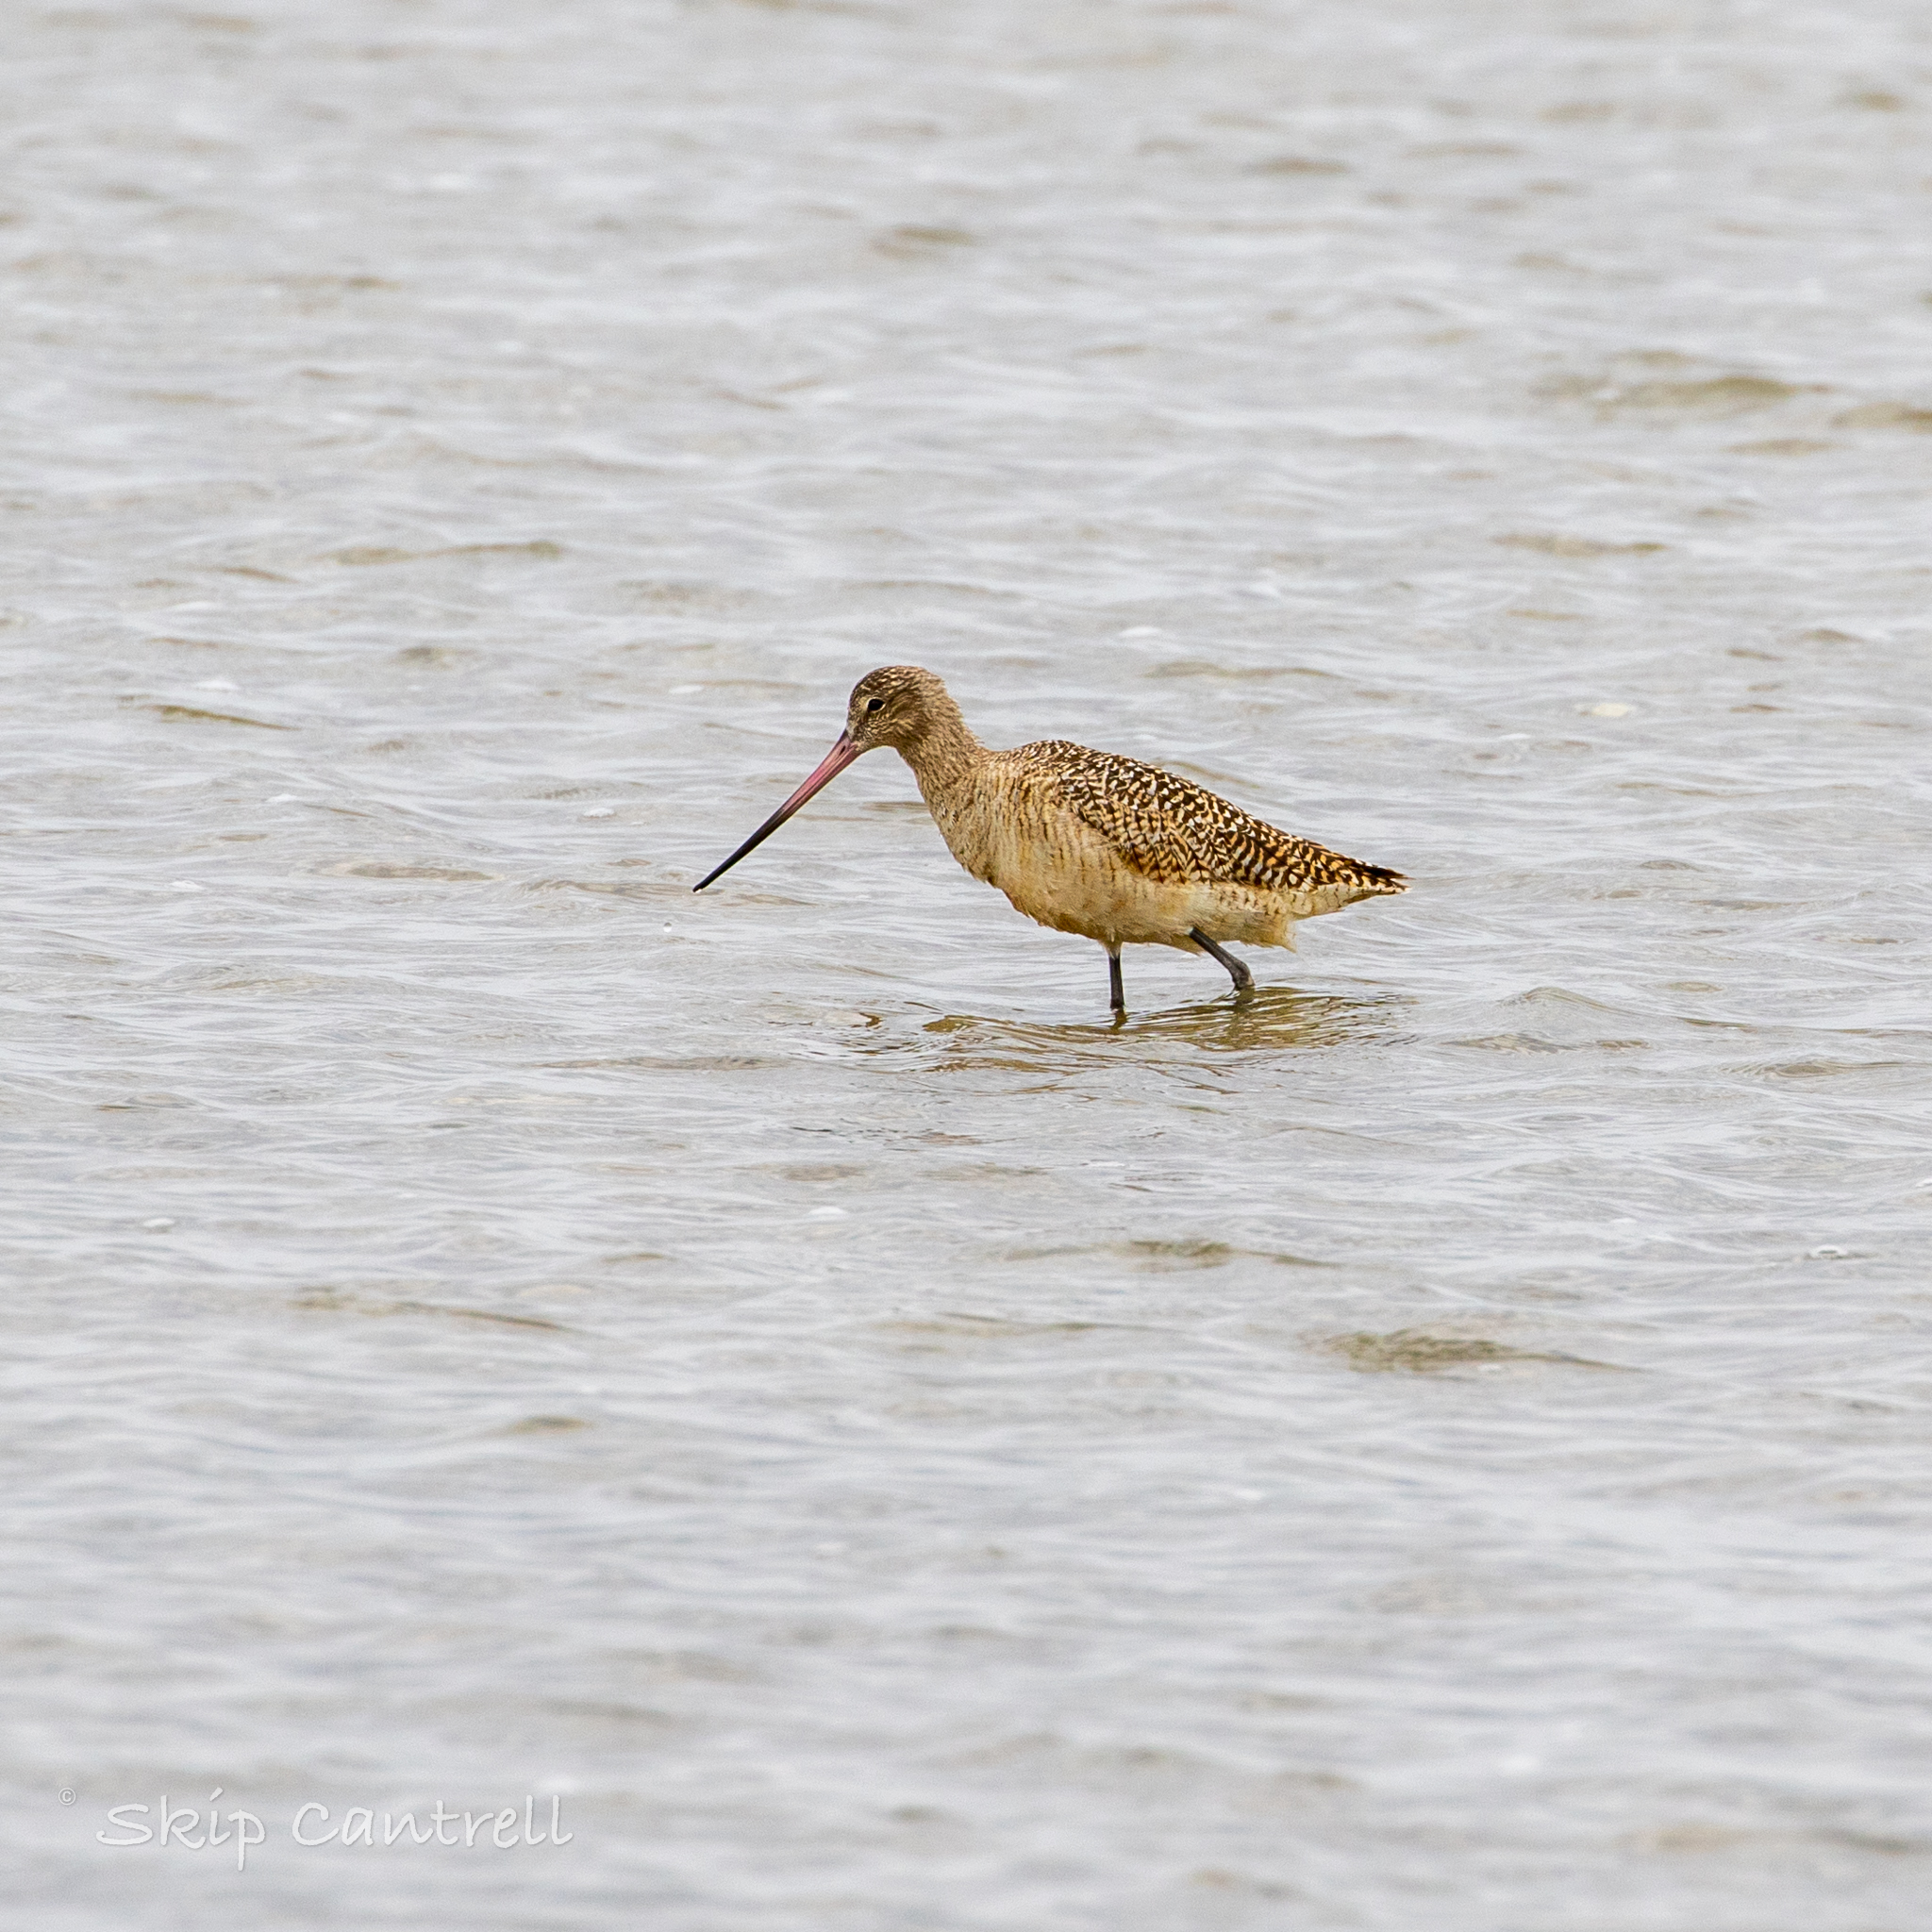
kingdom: Animalia
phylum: Chordata
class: Aves
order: Charadriiformes
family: Scolopacidae
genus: Limosa
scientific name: Limosa fedoa
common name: Marbled godwit
